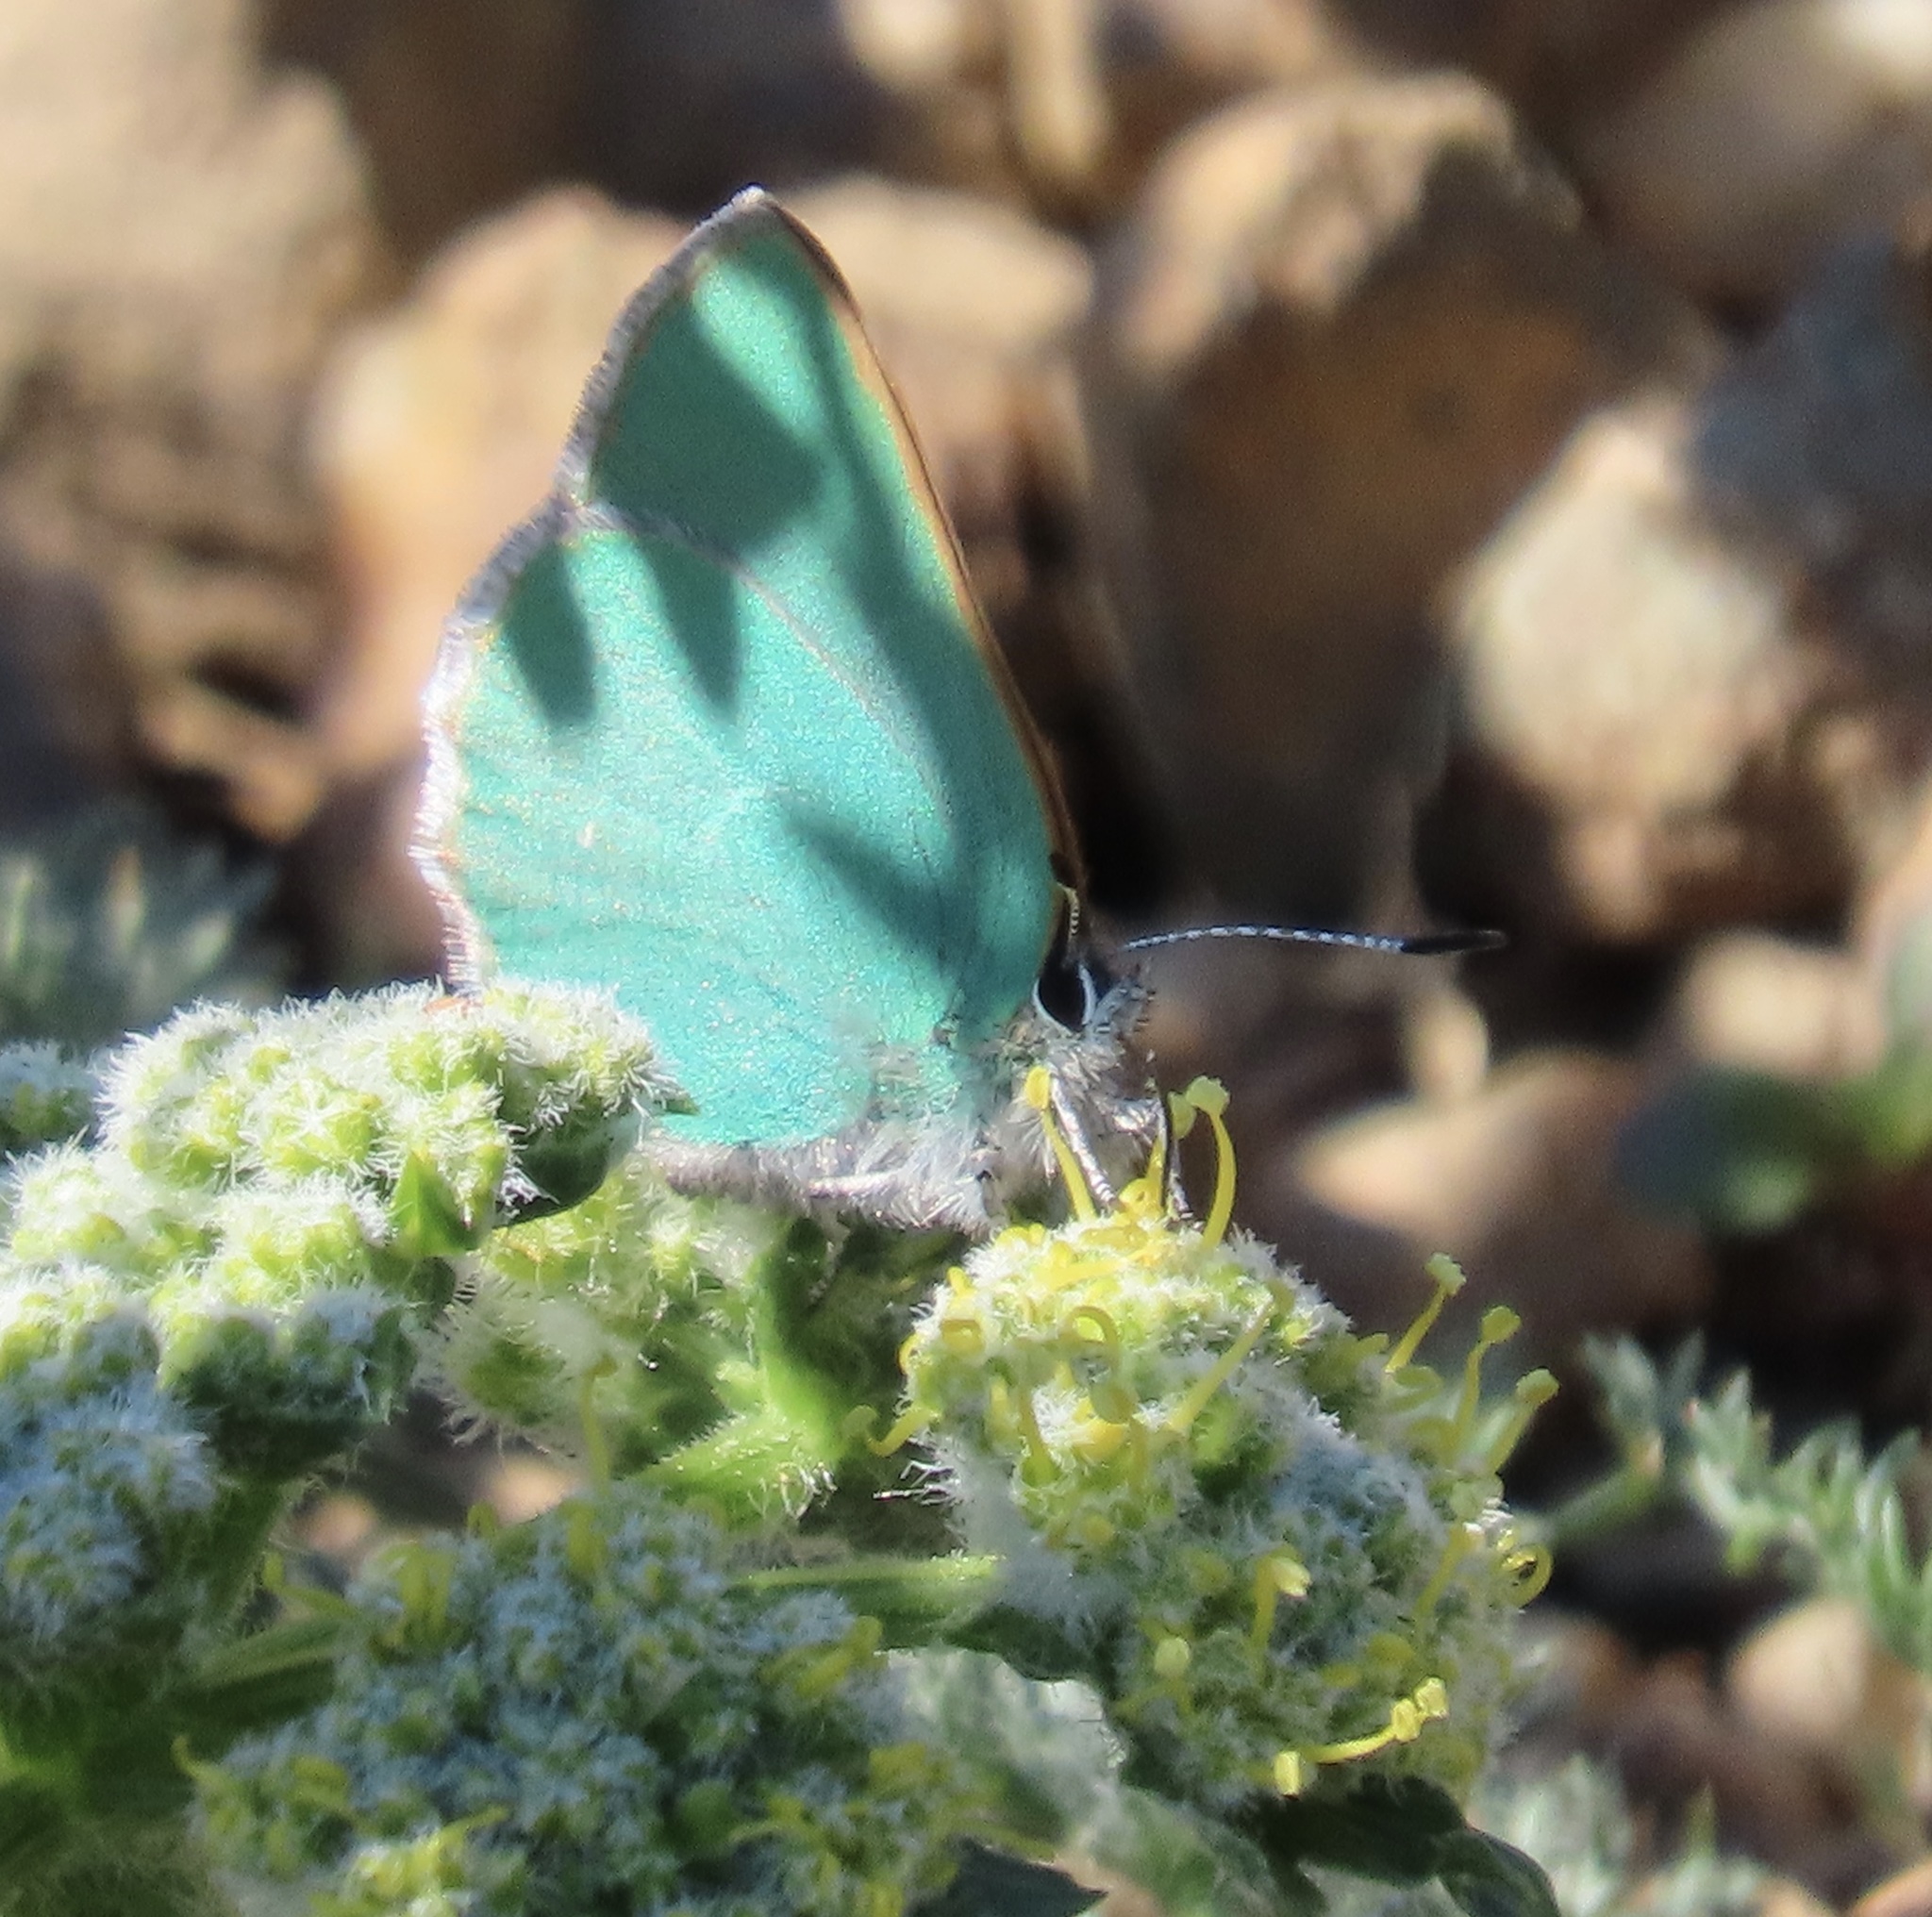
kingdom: Animalia
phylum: Arthropoda
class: Insecta
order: Lepidoptera
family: Lycaenidae
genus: Callophrys
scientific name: Callophrys viridis
